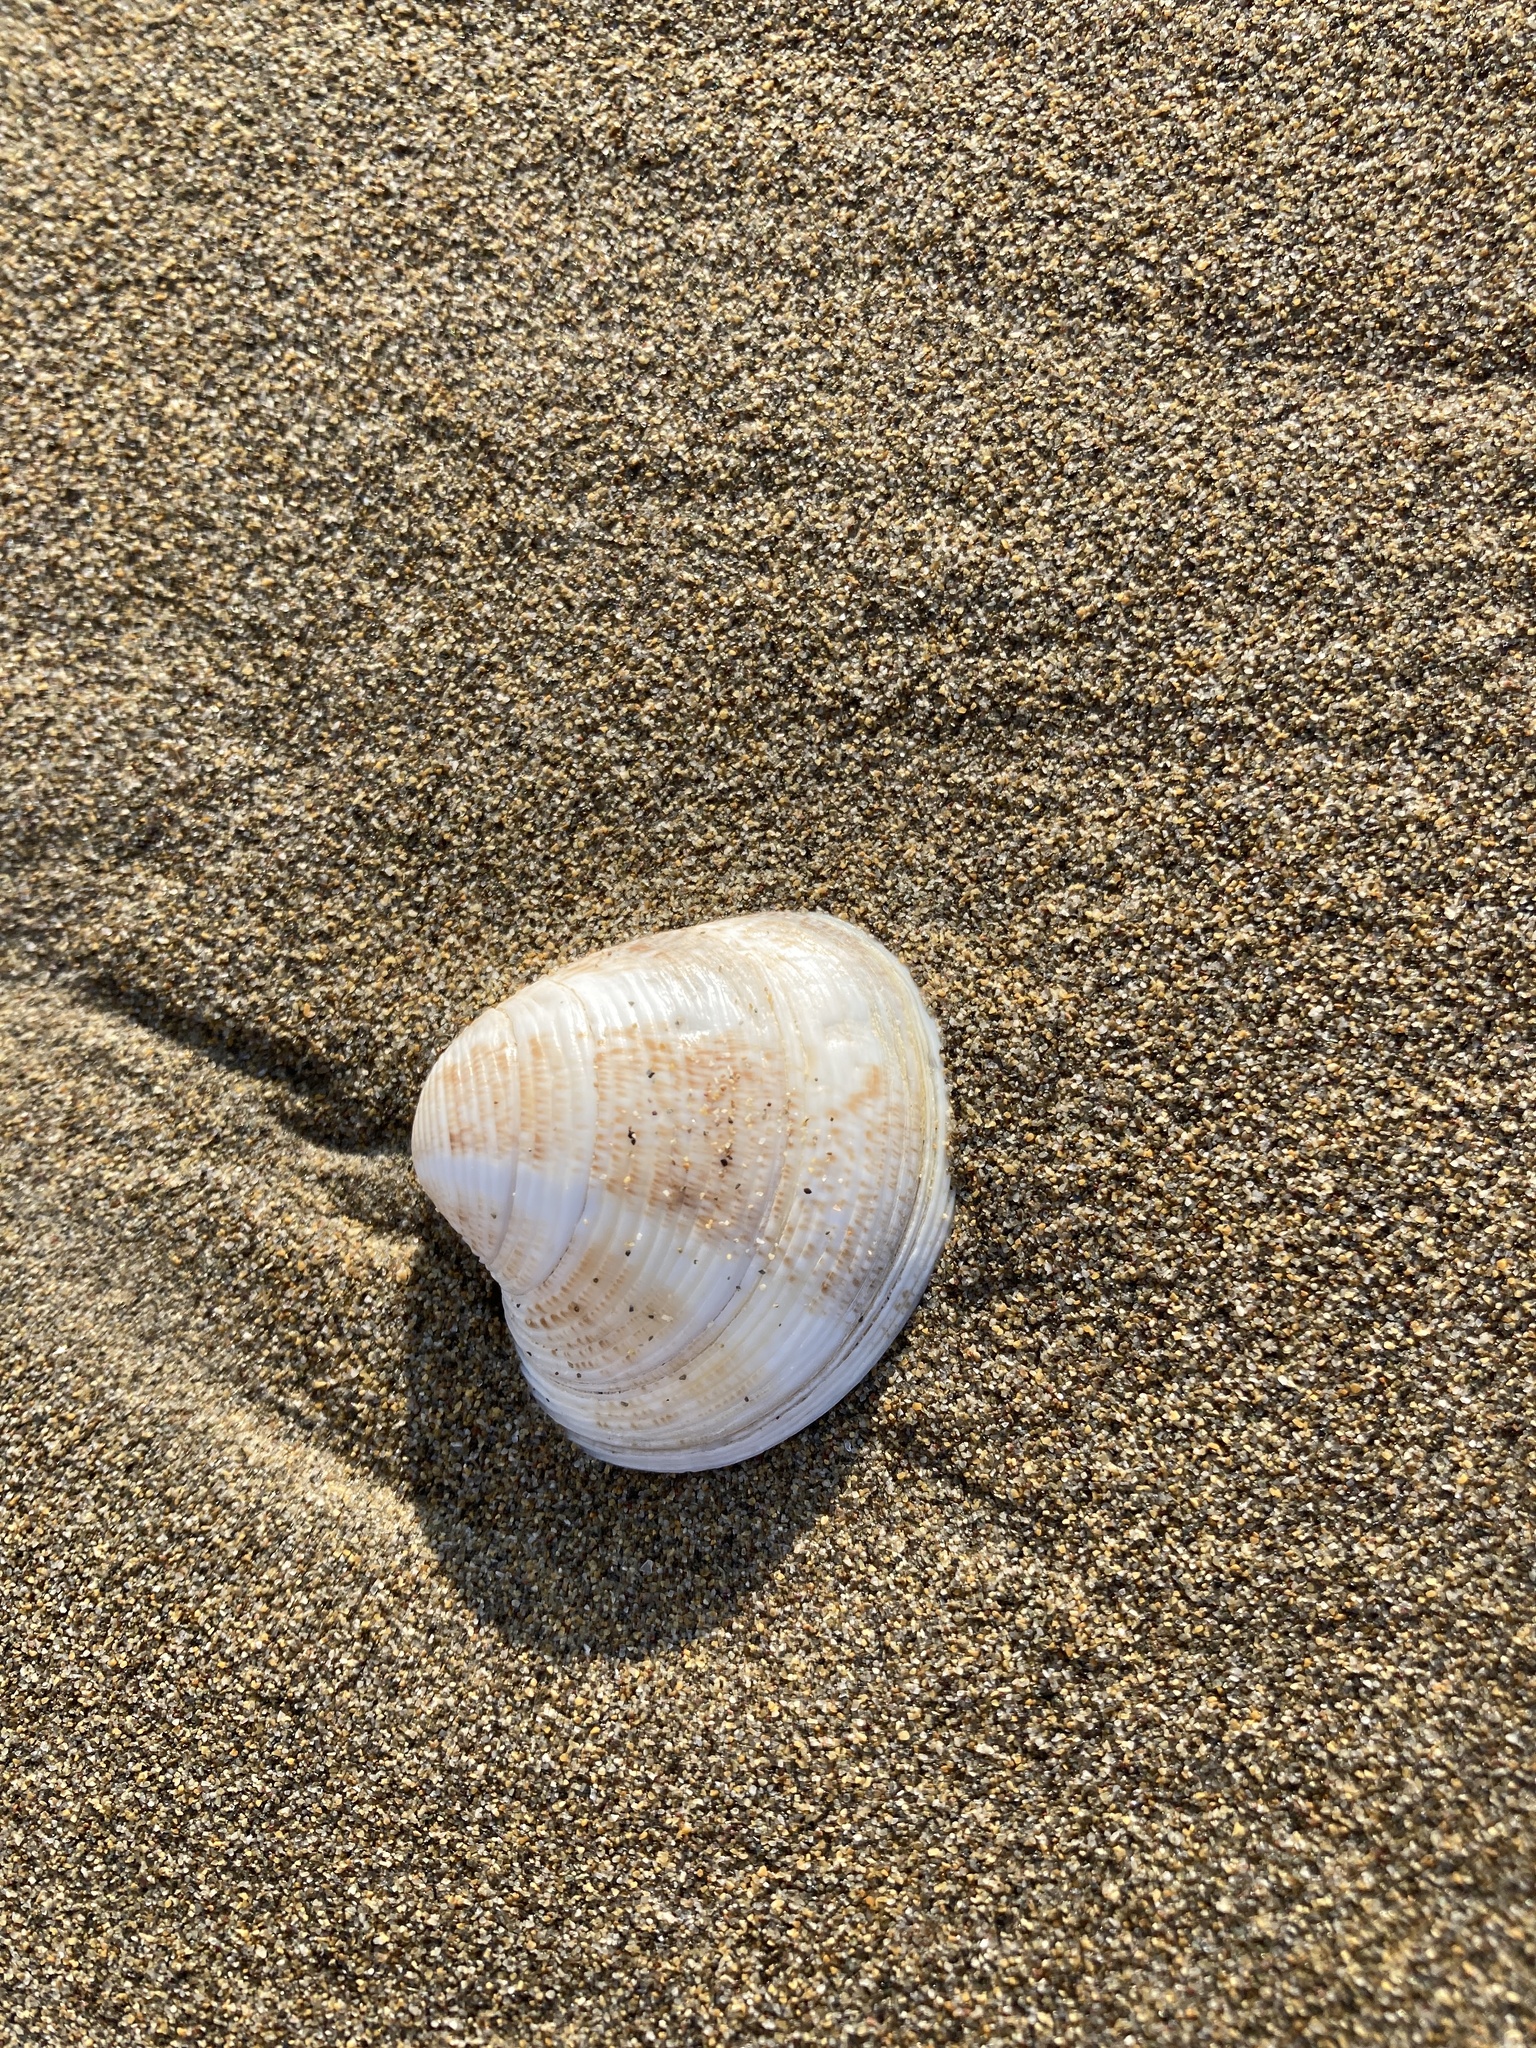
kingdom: Animalia
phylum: Mollusca
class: Bivalvia
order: Venerida
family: Veneridae
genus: Chamelea
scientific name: Chamelea gallina
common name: Chicken venus
